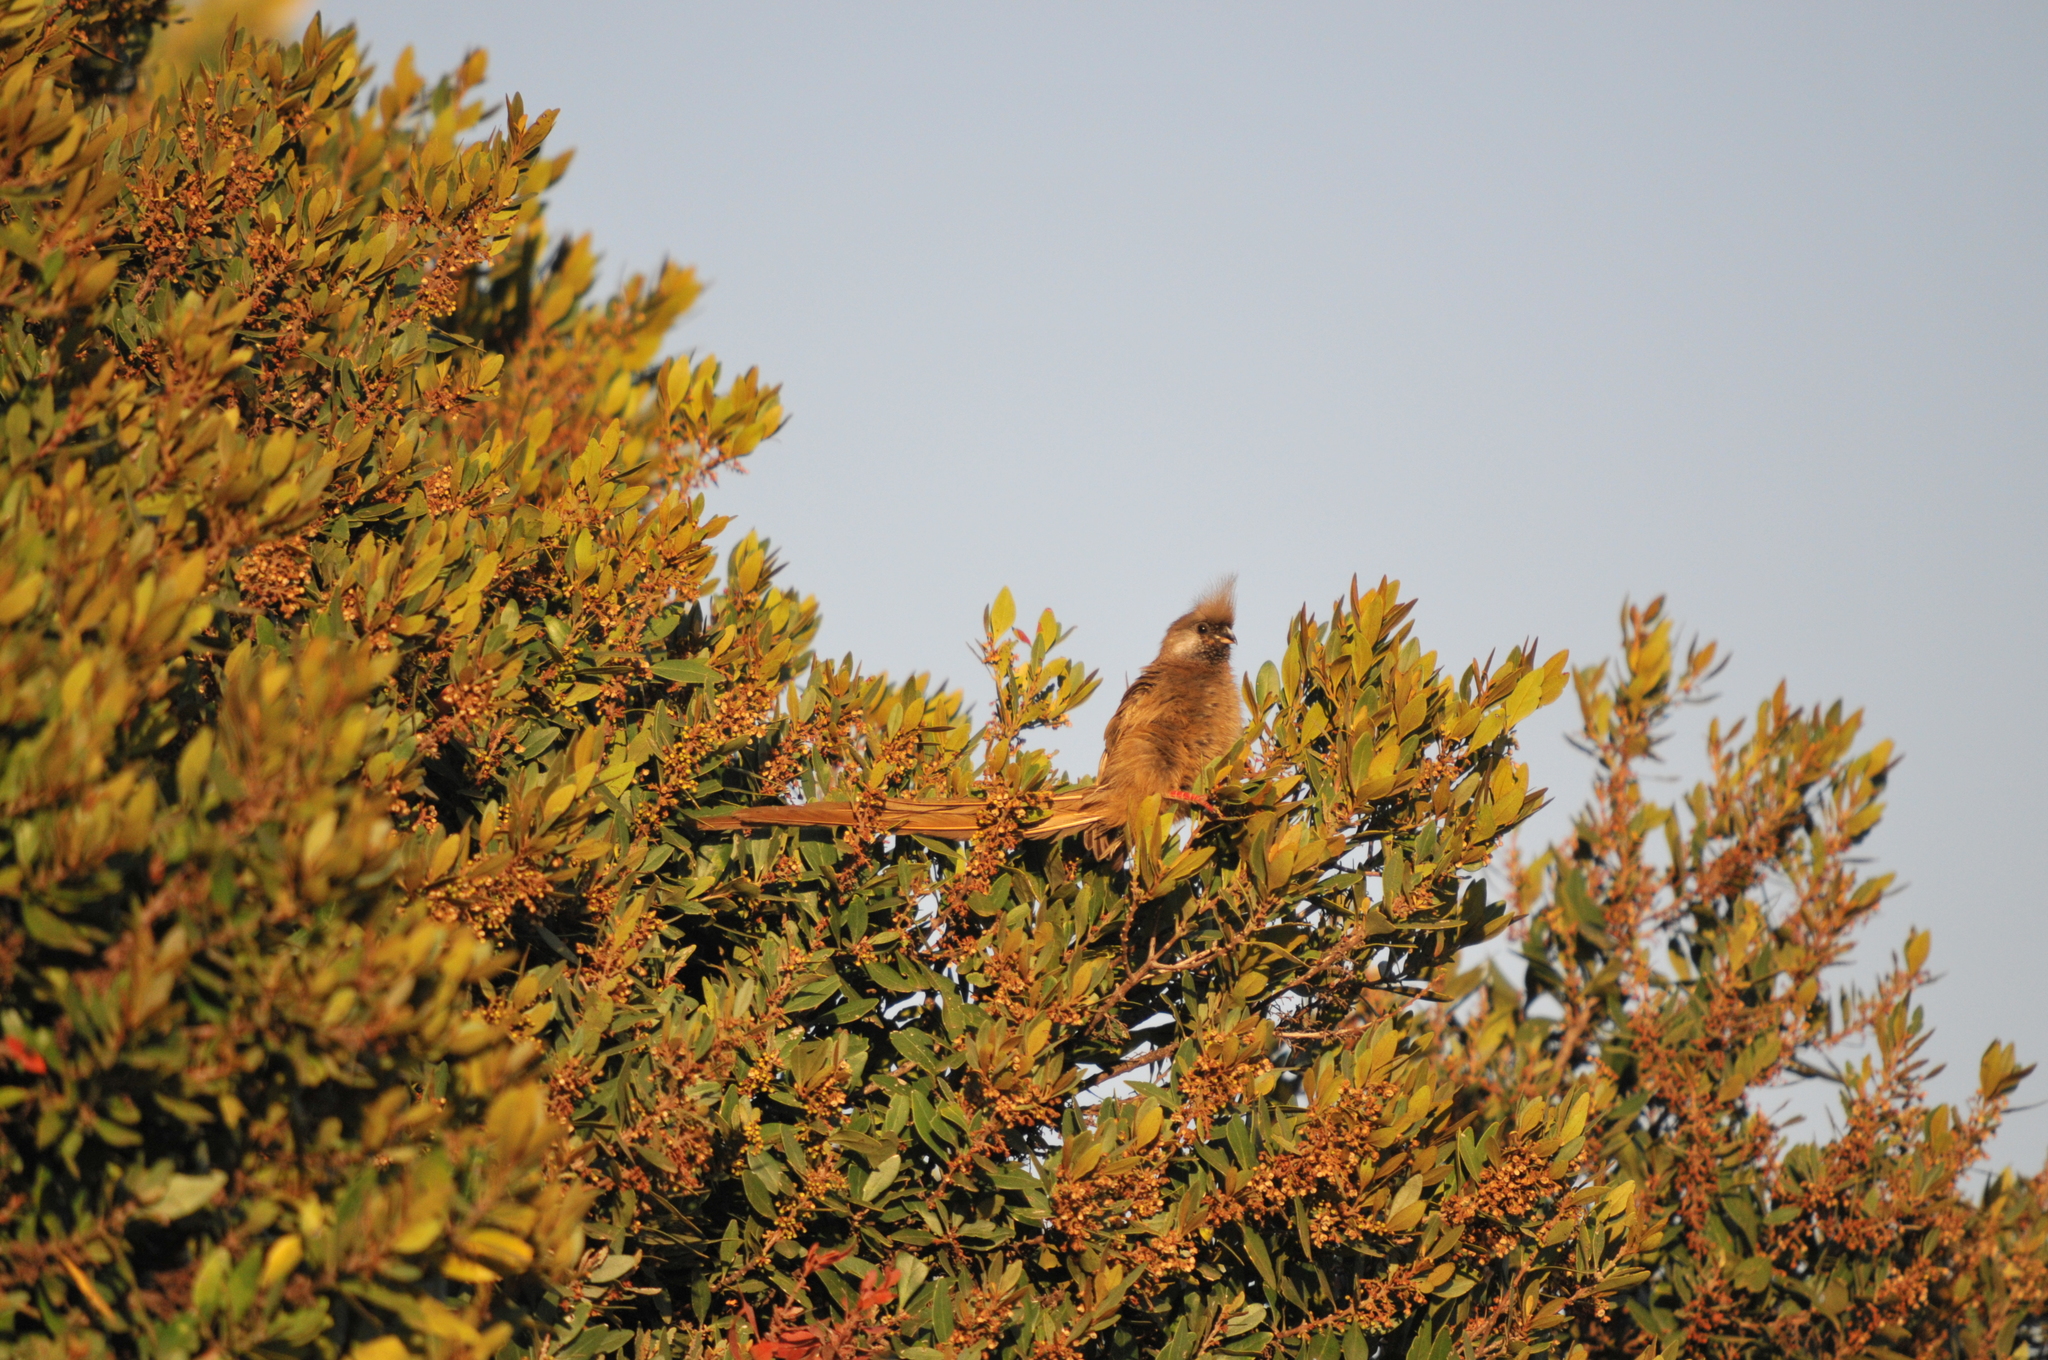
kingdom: Animalia
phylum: Chordata
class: Aves
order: Coliiformes
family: Coliidae
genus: Colius
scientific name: Colius striatus
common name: Speckled mousebird
